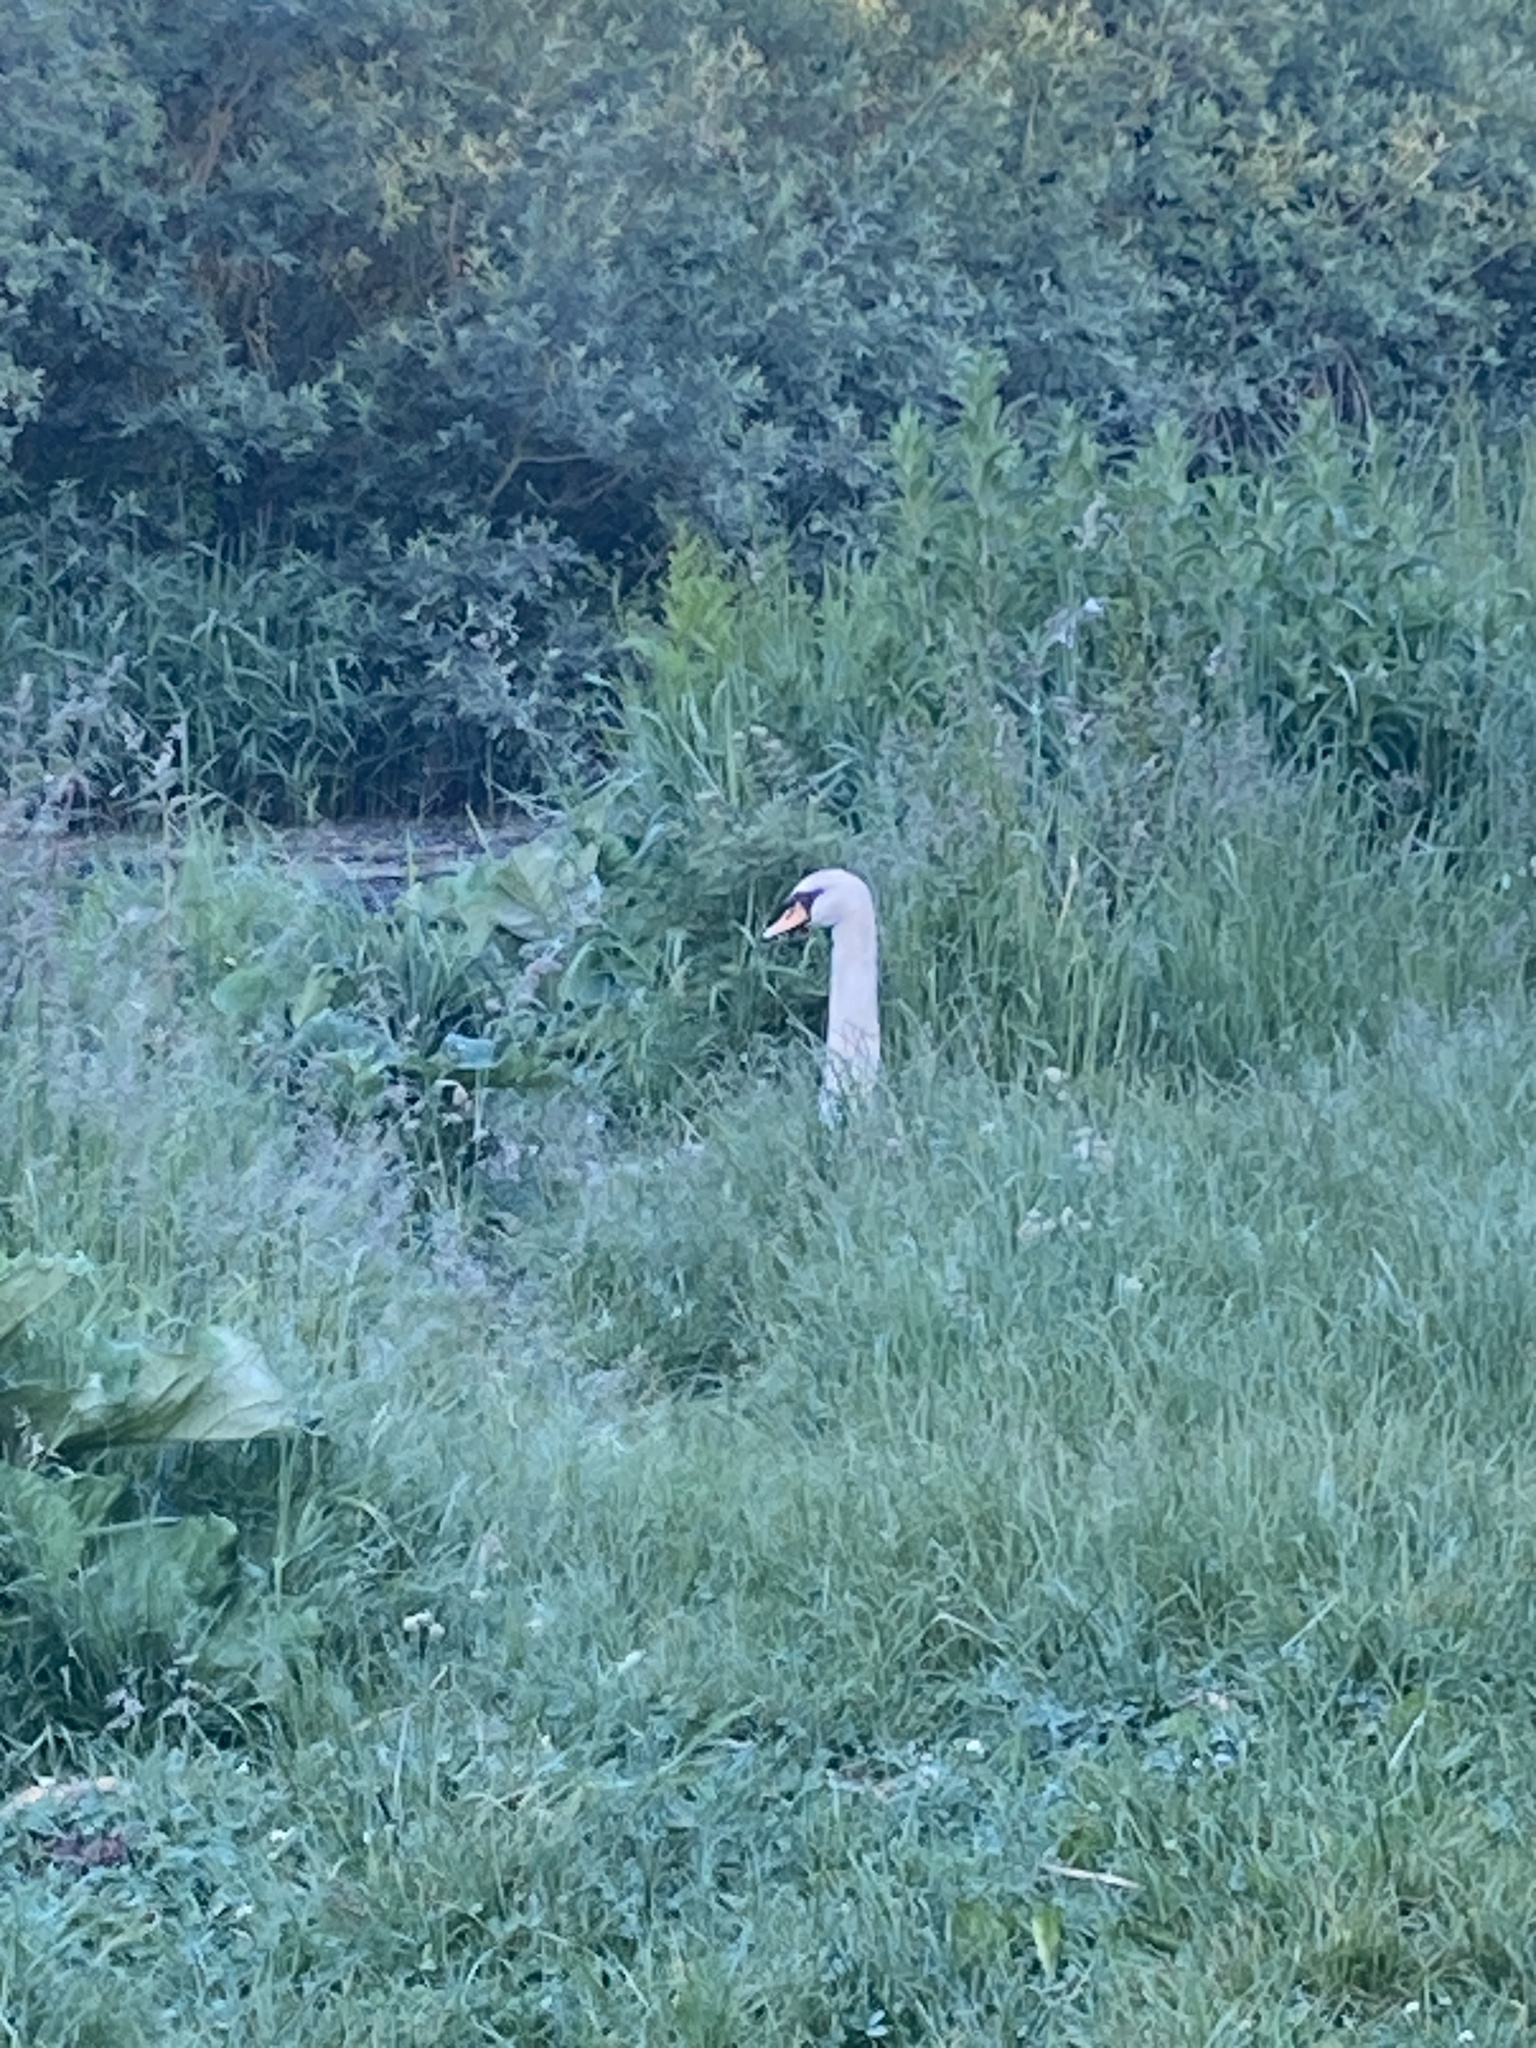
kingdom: Animalia
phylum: Chordata
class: Aves
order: Anseriformes
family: Anatidae
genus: Cygnus
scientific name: Cygnus olor
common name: Mute swan
